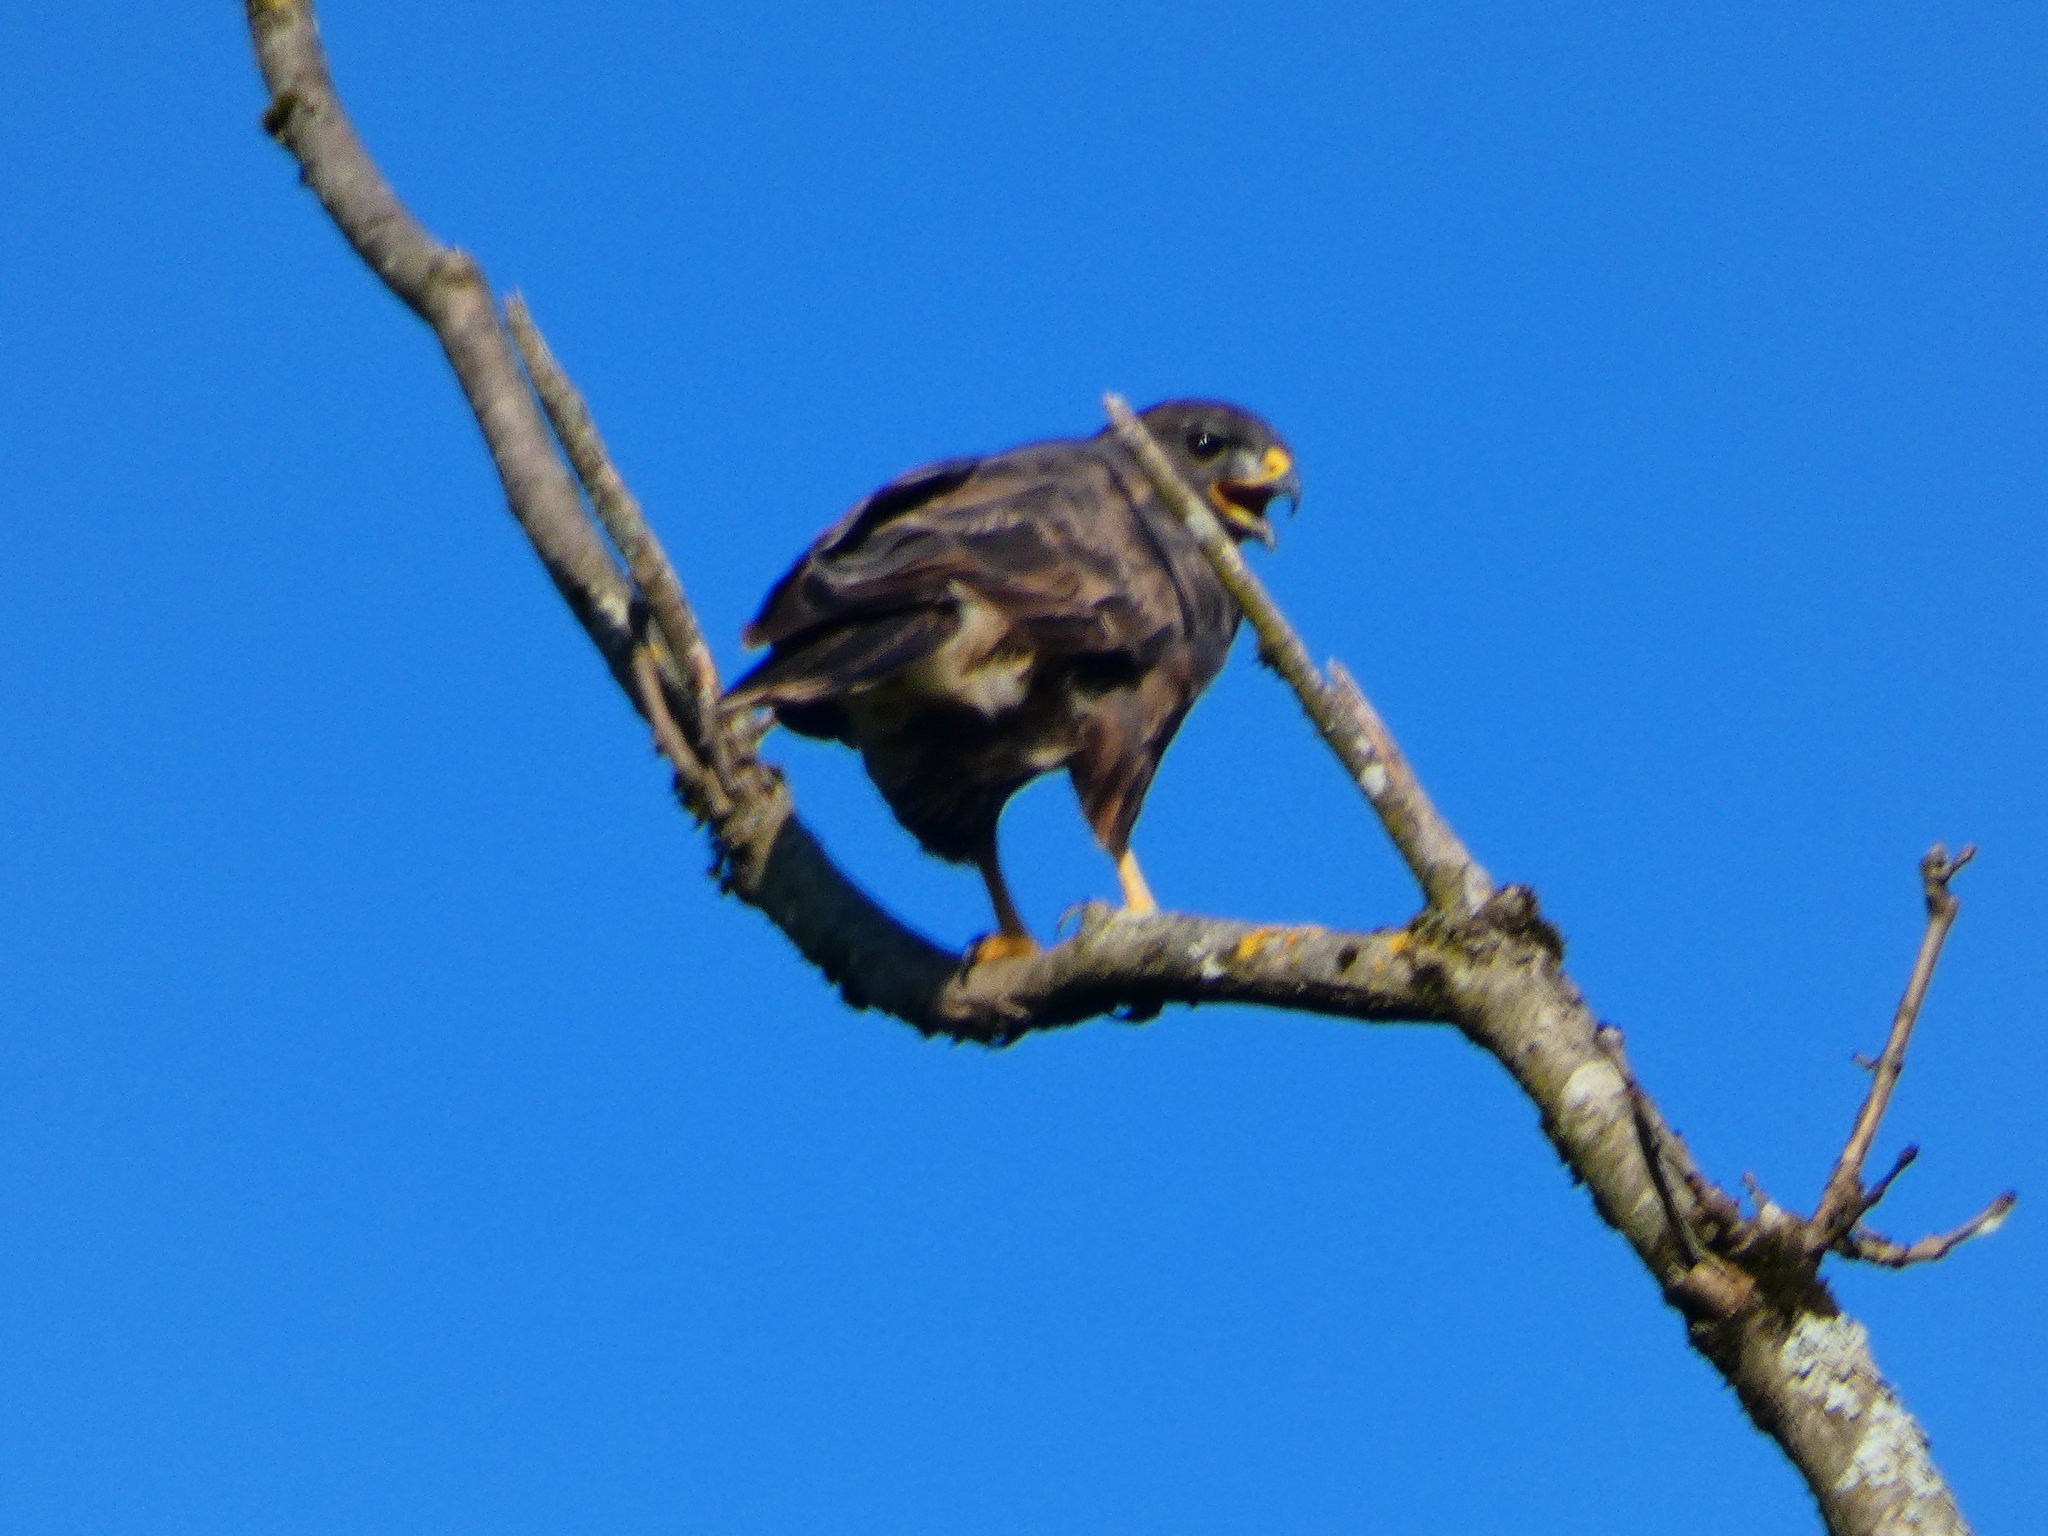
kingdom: Animalia
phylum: Chordata
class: Aves
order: Accipitriformes
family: Accipitridae
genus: Buteo
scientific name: Buteo buteo
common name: Common buzzard
